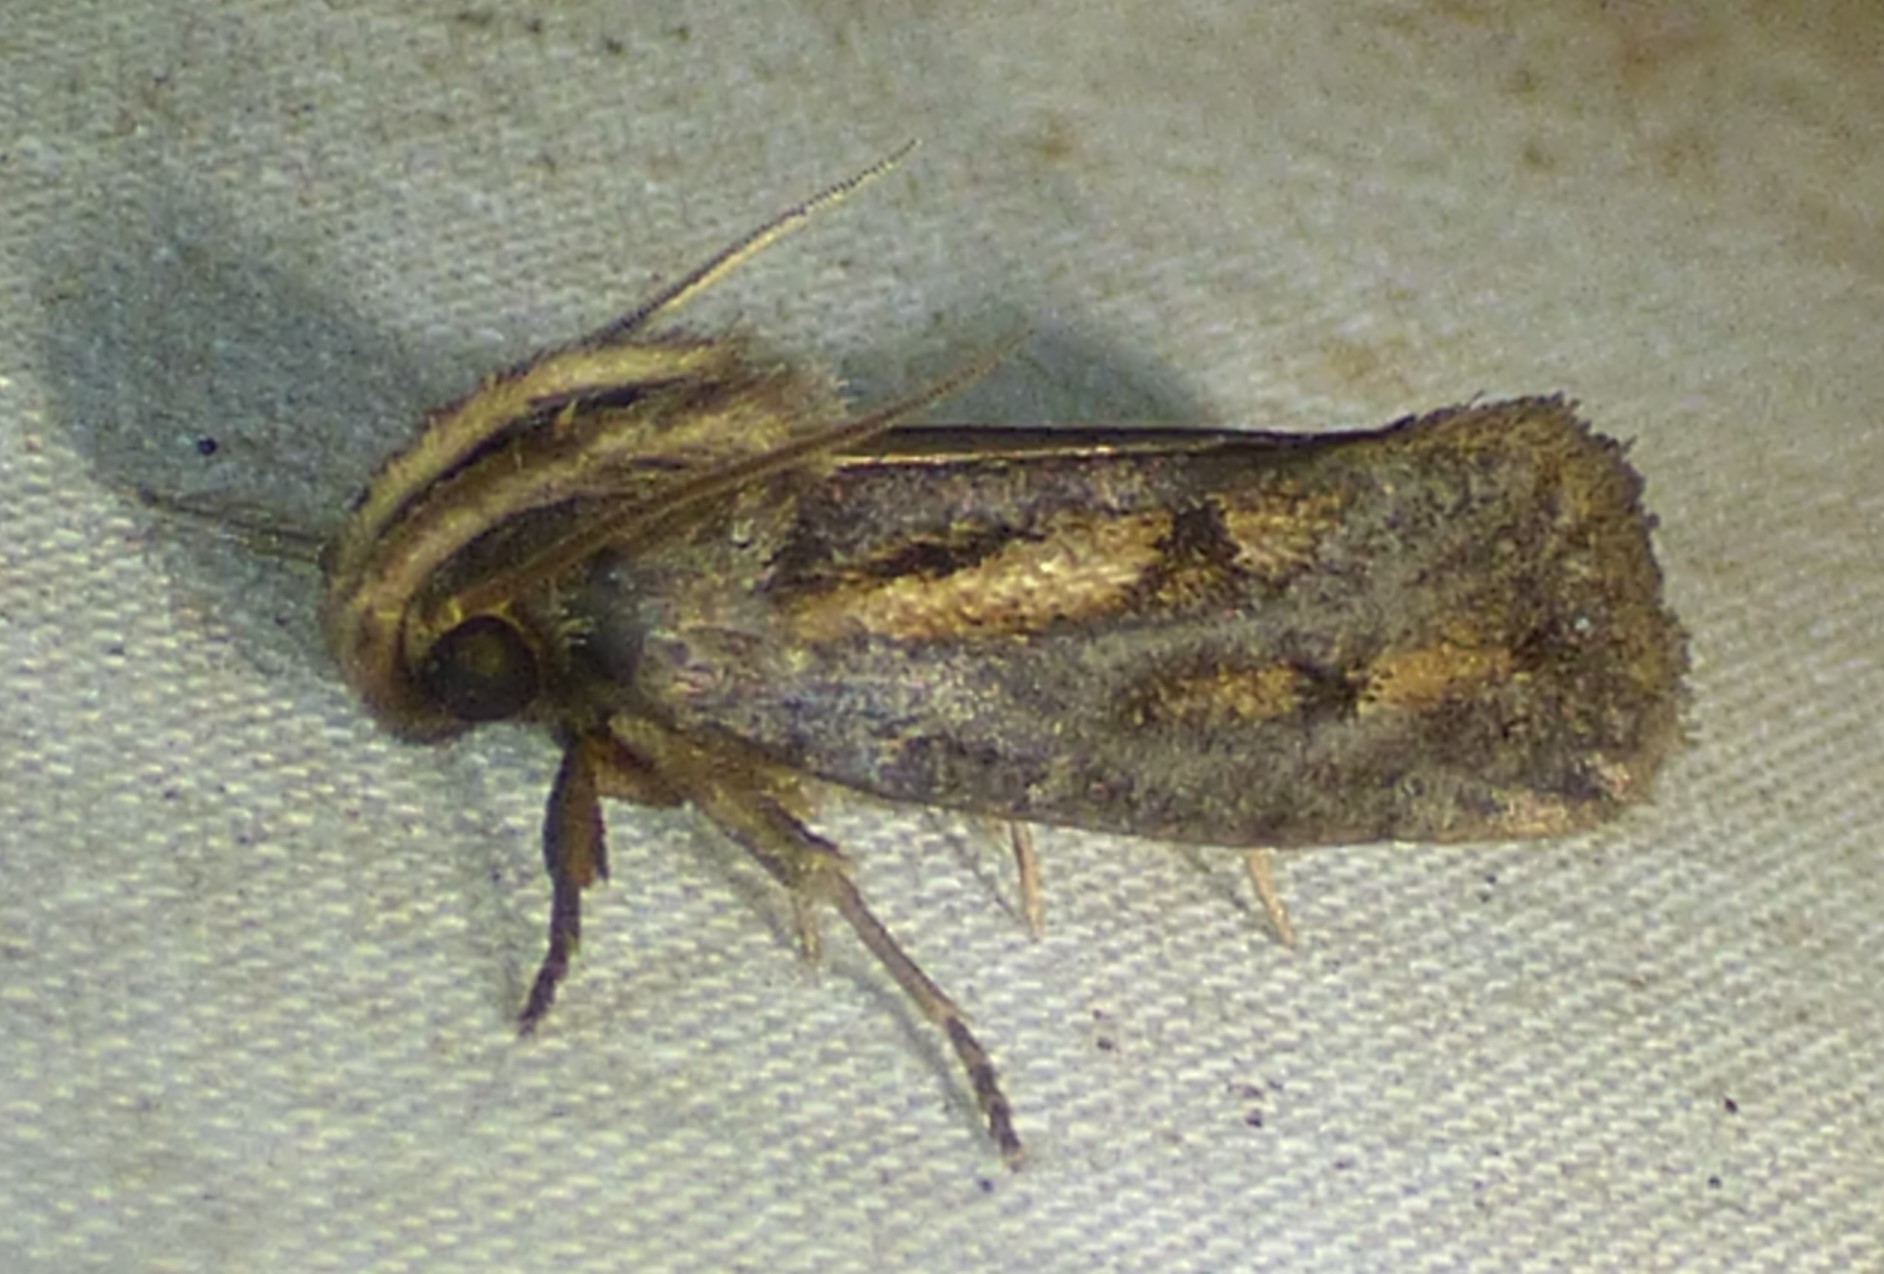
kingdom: Animalia
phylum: Arthropoda
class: Insecta
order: Lepidoptera
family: Tineidae
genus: Acrolophus
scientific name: Acrolophus popeanella
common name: Clemens' grass tubeworm moth
